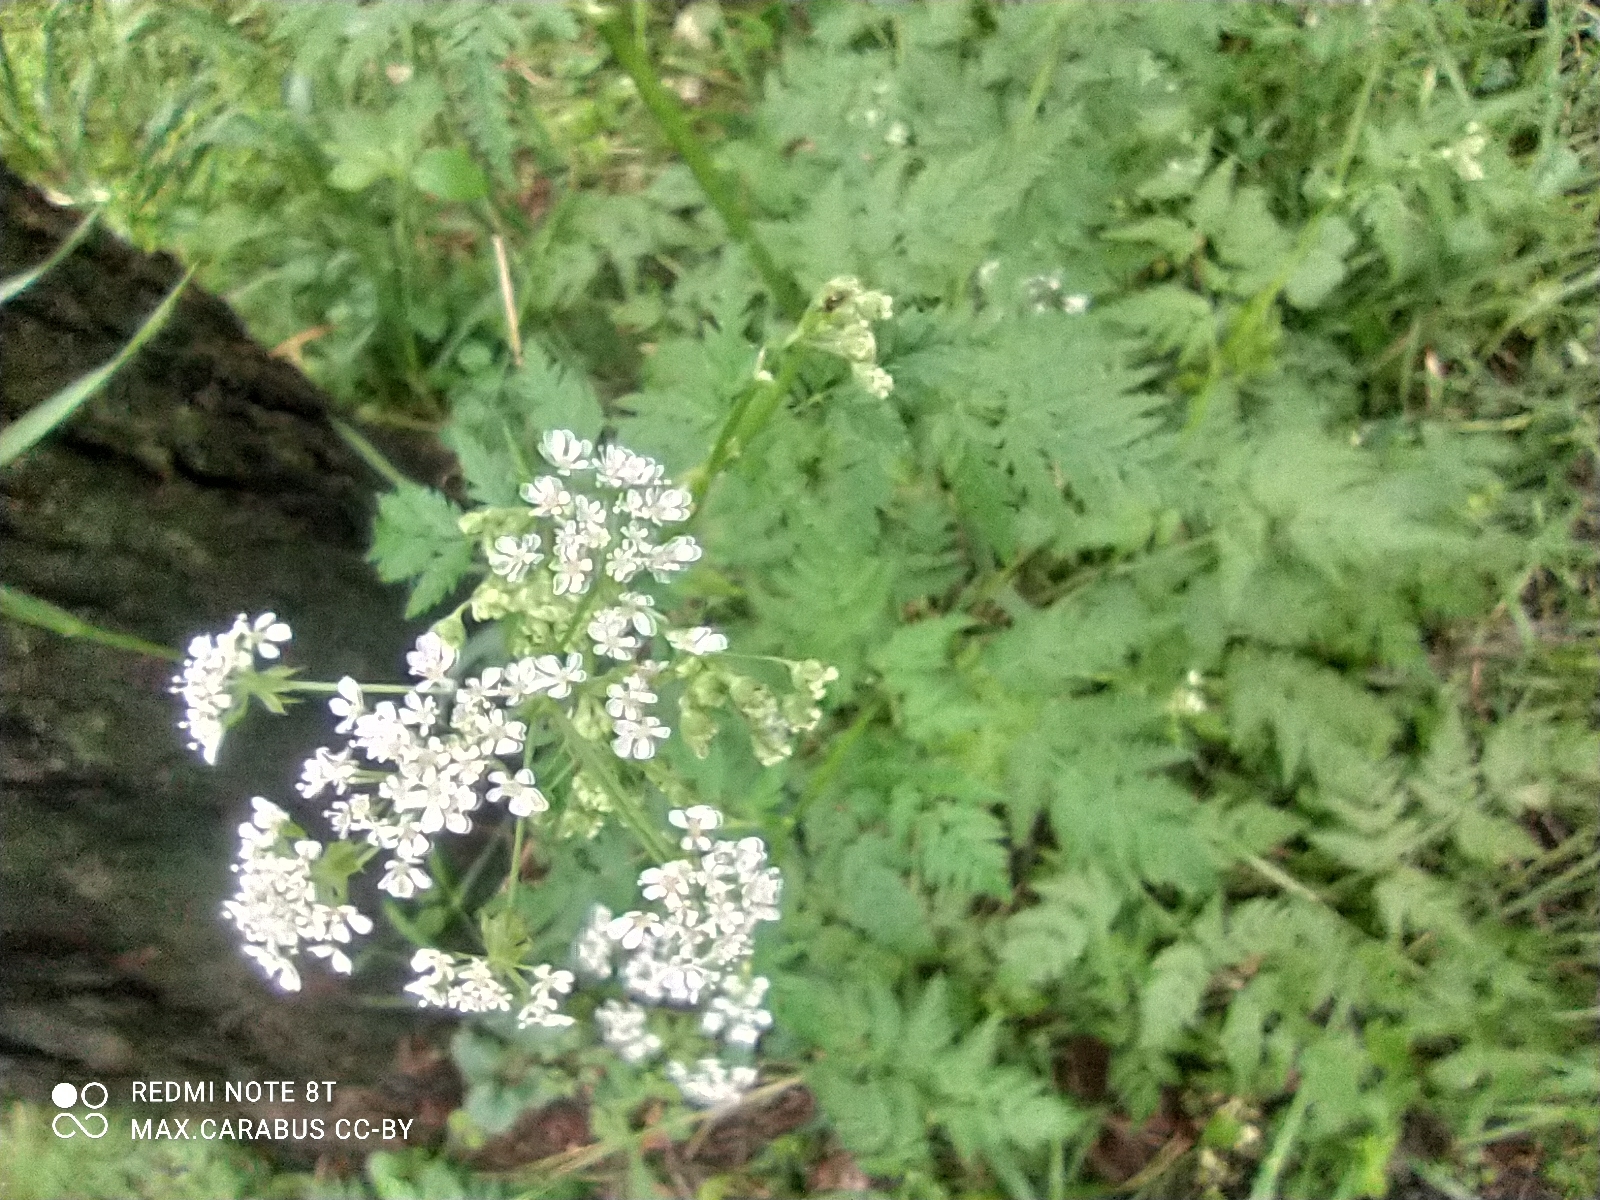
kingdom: Plantae
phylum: Tracheophyta
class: Magnoliopsida
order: Apiales
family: Apiaceae
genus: Anthriscus
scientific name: Anthriscus sylvestris
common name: Cow parsley
